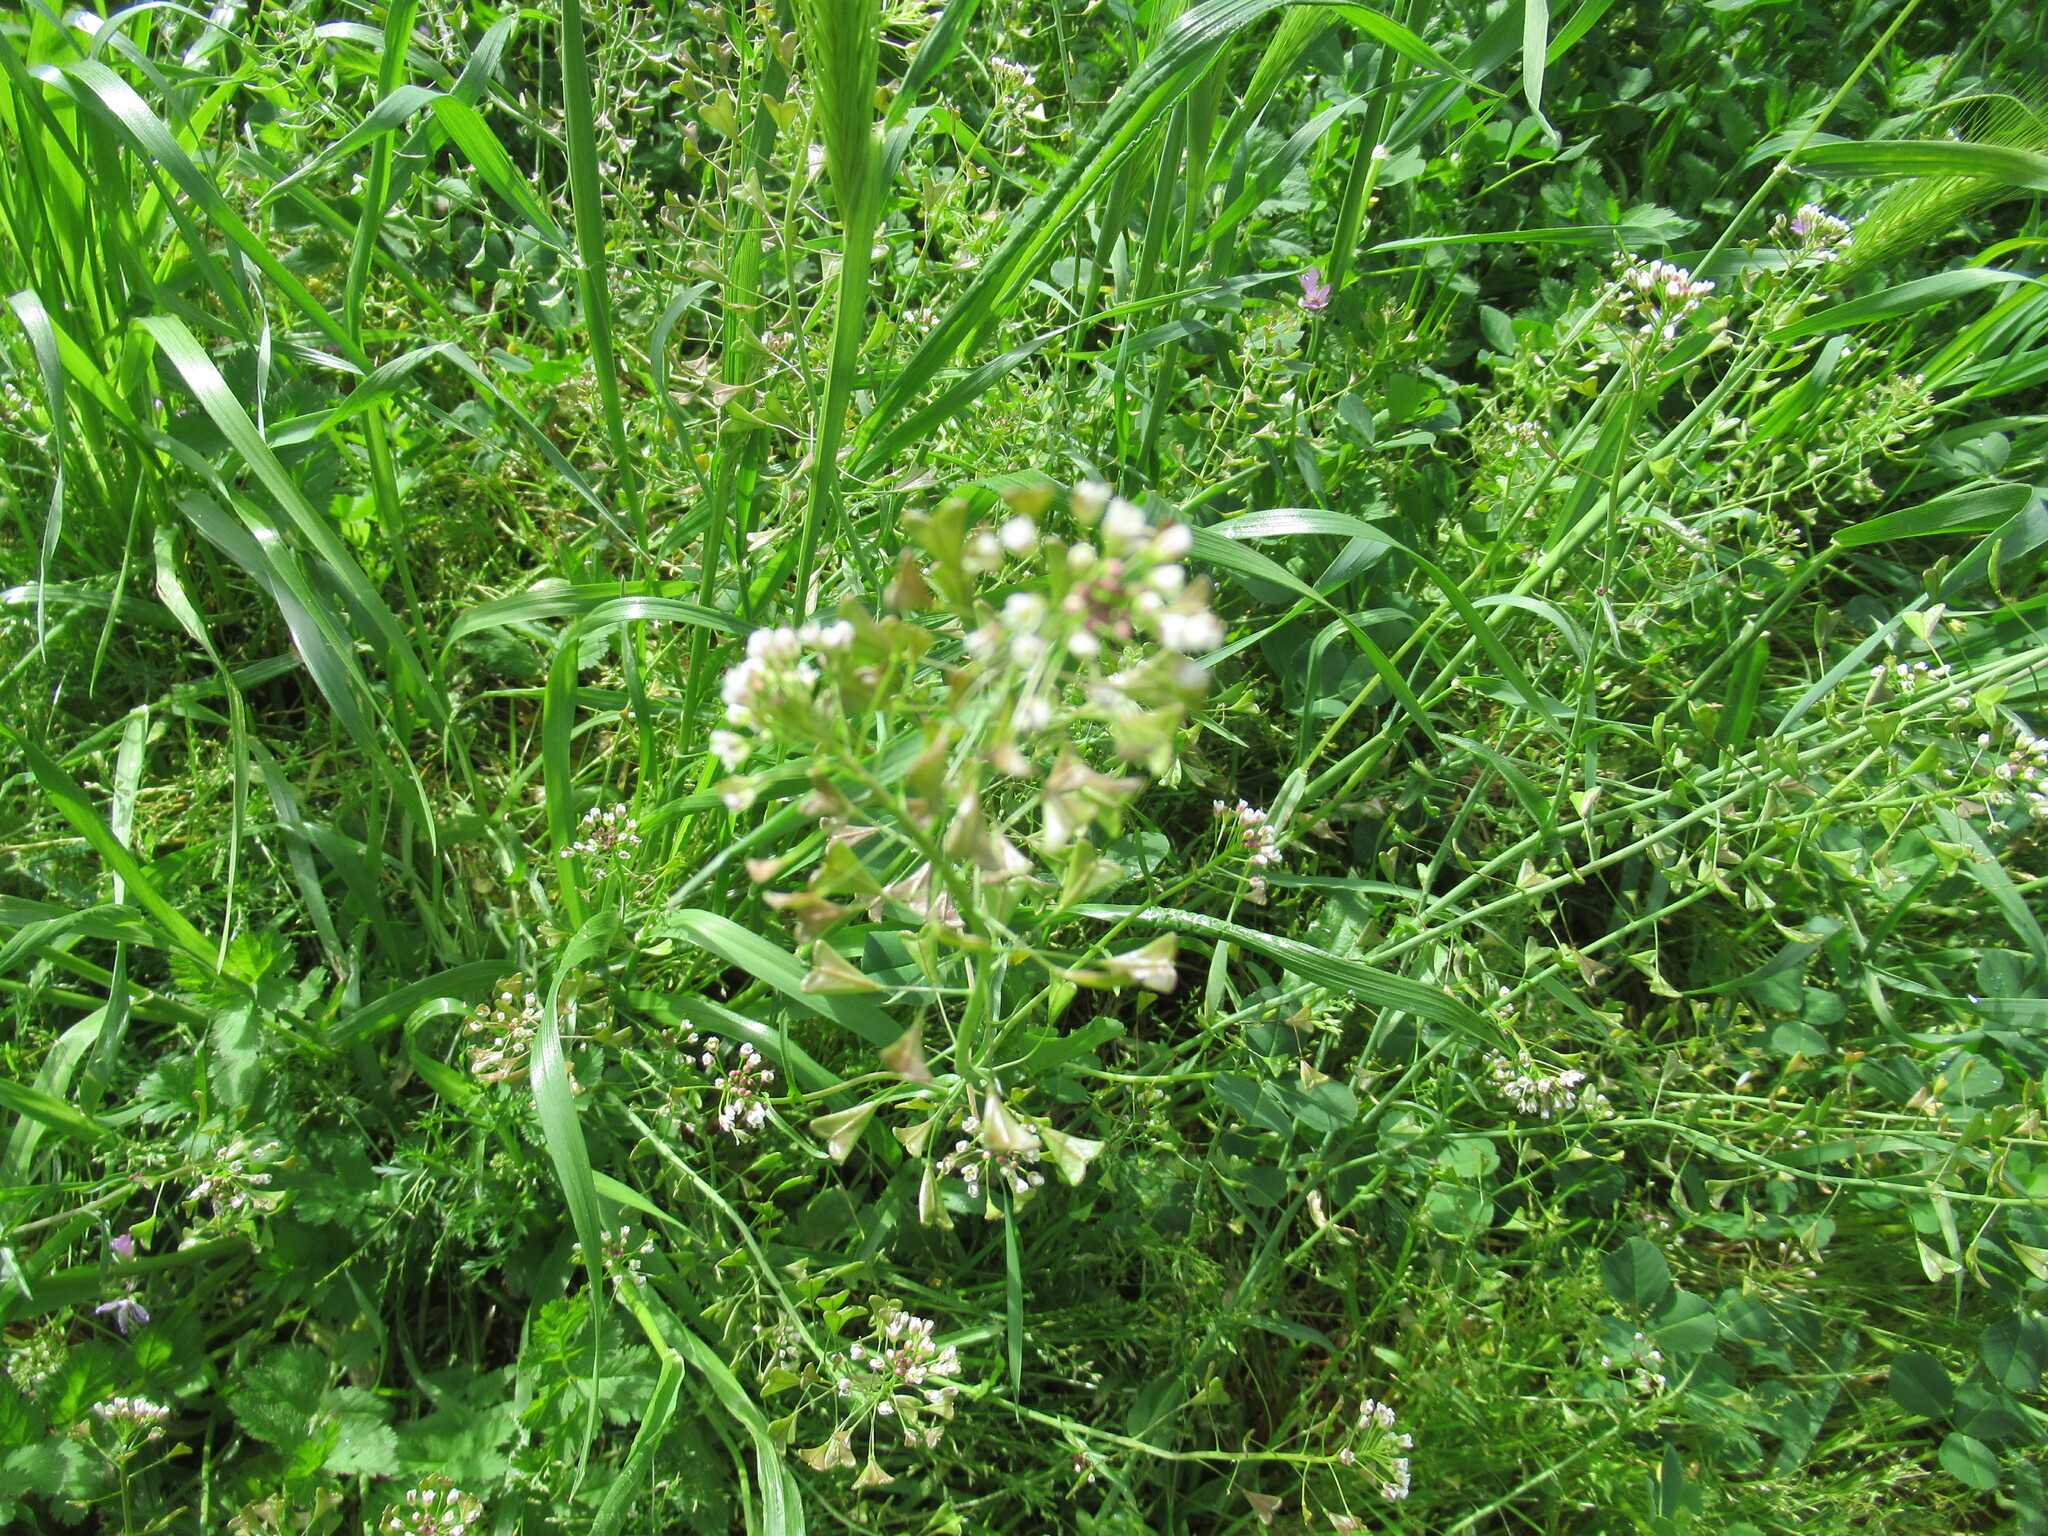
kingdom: Plantae
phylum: Tracheophyta
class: Magnoliopsida
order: Brassicales
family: Brassicaceae
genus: Capsella
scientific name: Capsella bursa-pastoris
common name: Shepherd's purse
